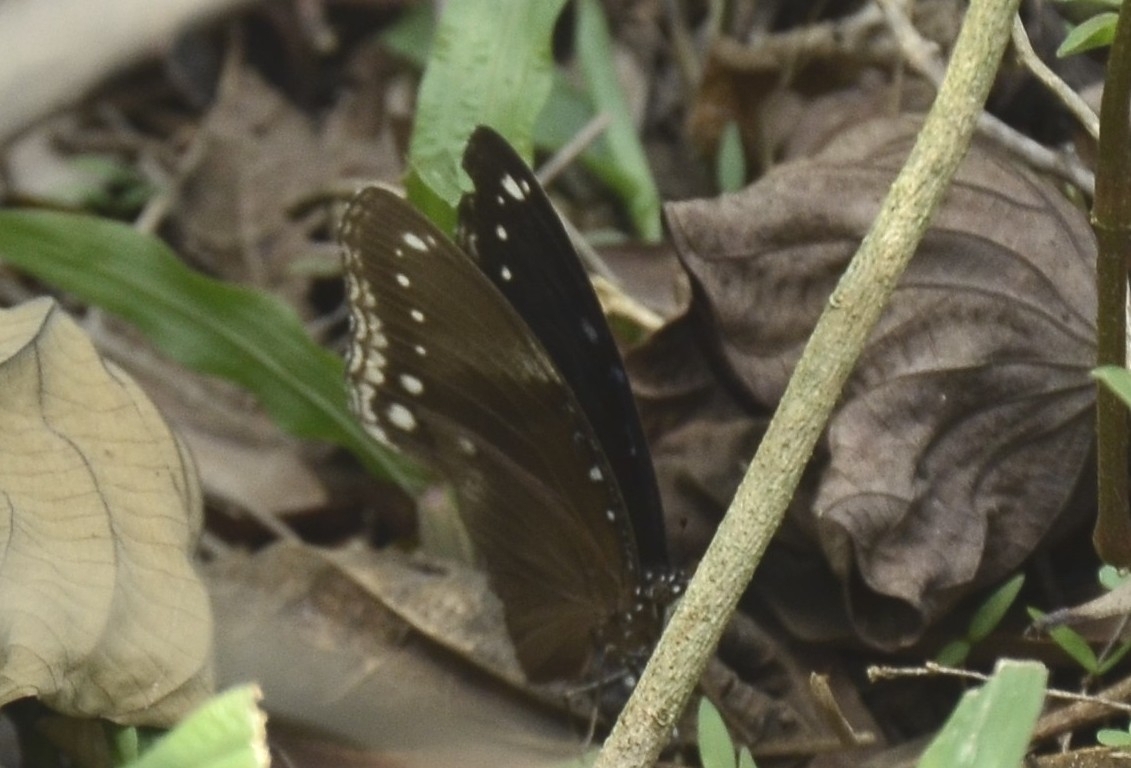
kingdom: Animalia
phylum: Arthropoda
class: Insecta
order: Lepidoptera
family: Nymphalidae
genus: Hypolimnas
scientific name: Hypolimnas bolina
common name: Great eggfly
